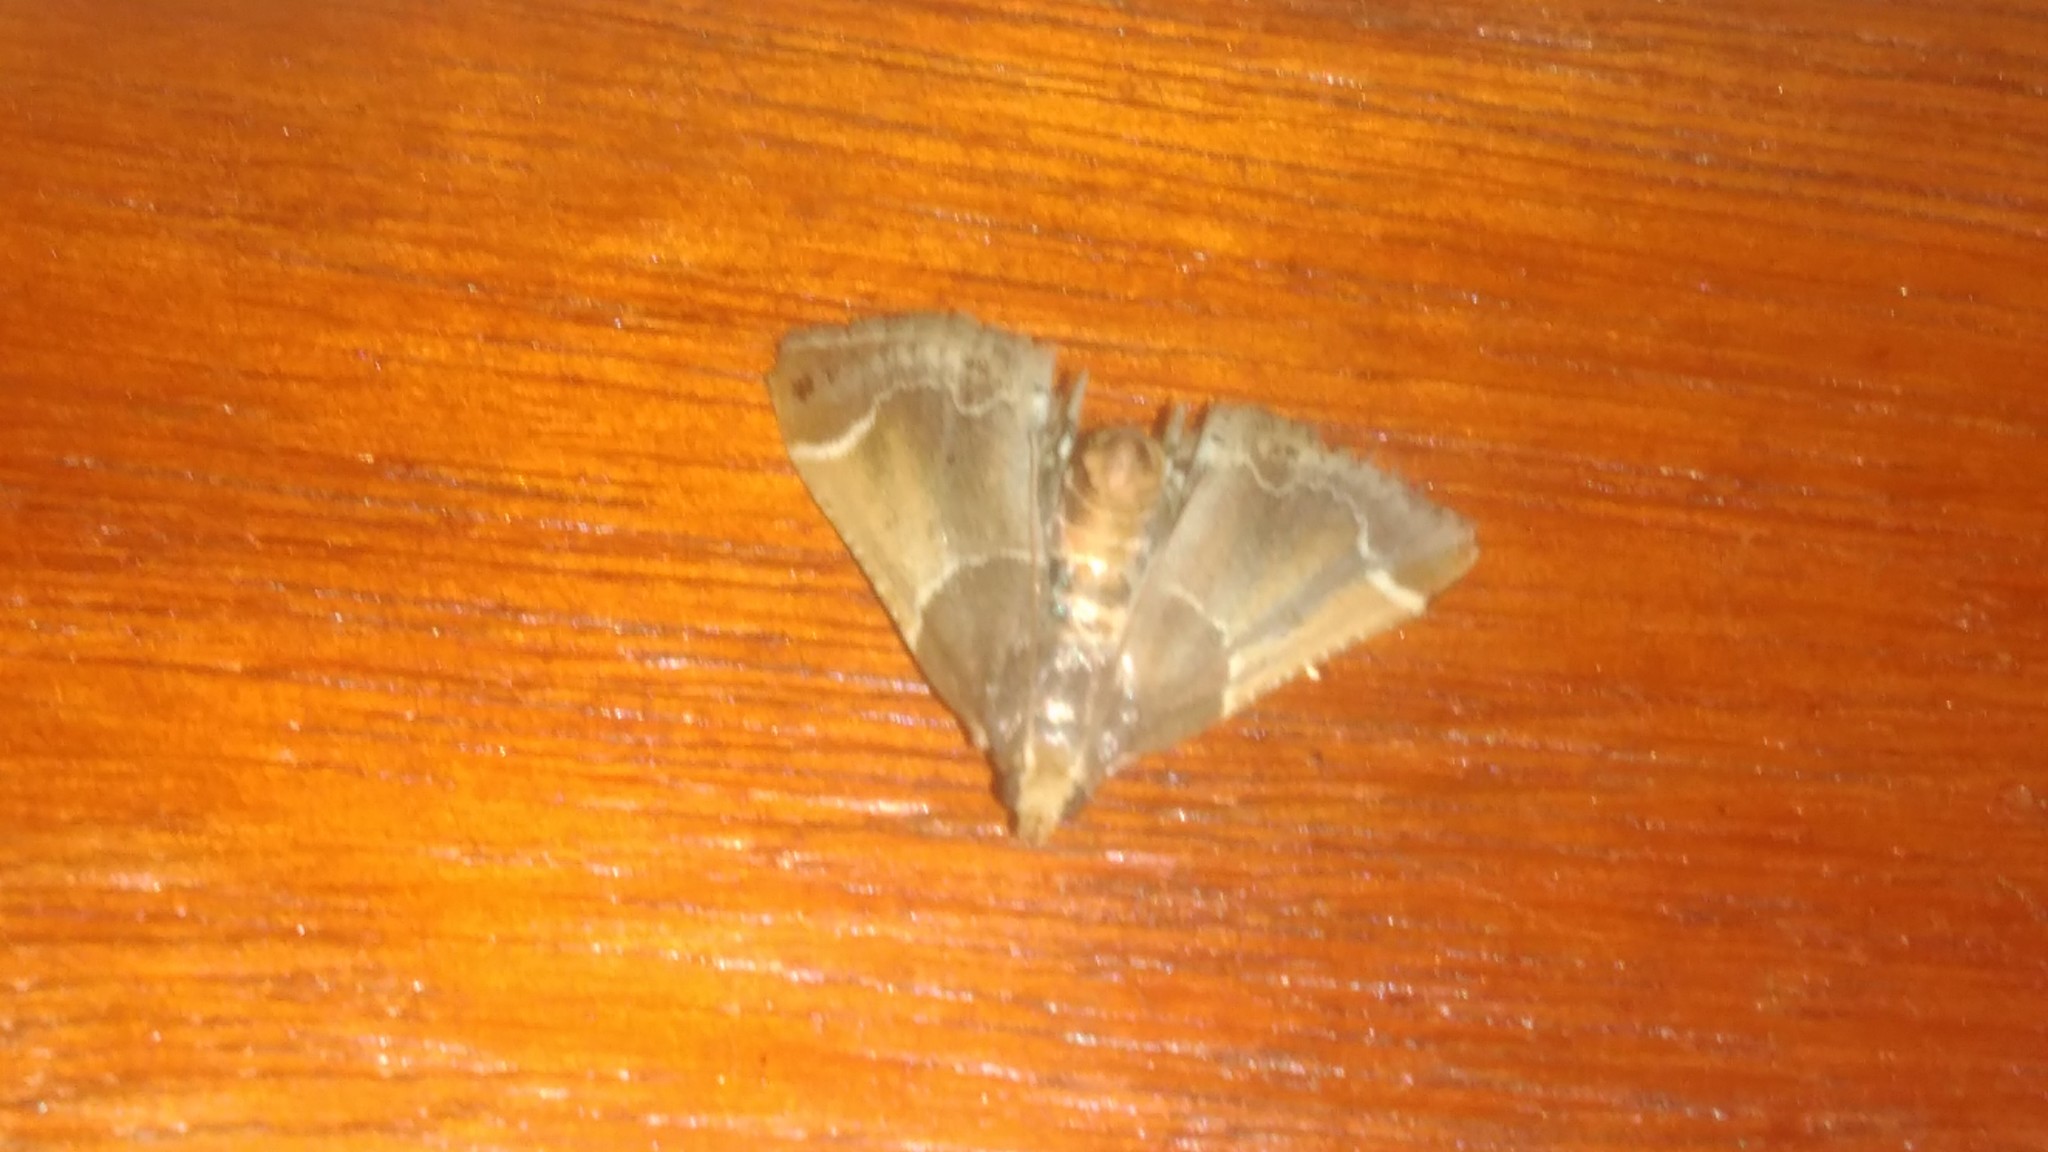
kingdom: Animalia
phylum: Arthropoda
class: Insecta
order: Lepidoptera
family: Pyralidae
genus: Pyralis
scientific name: Pyralis farinalis
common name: Meal moth
